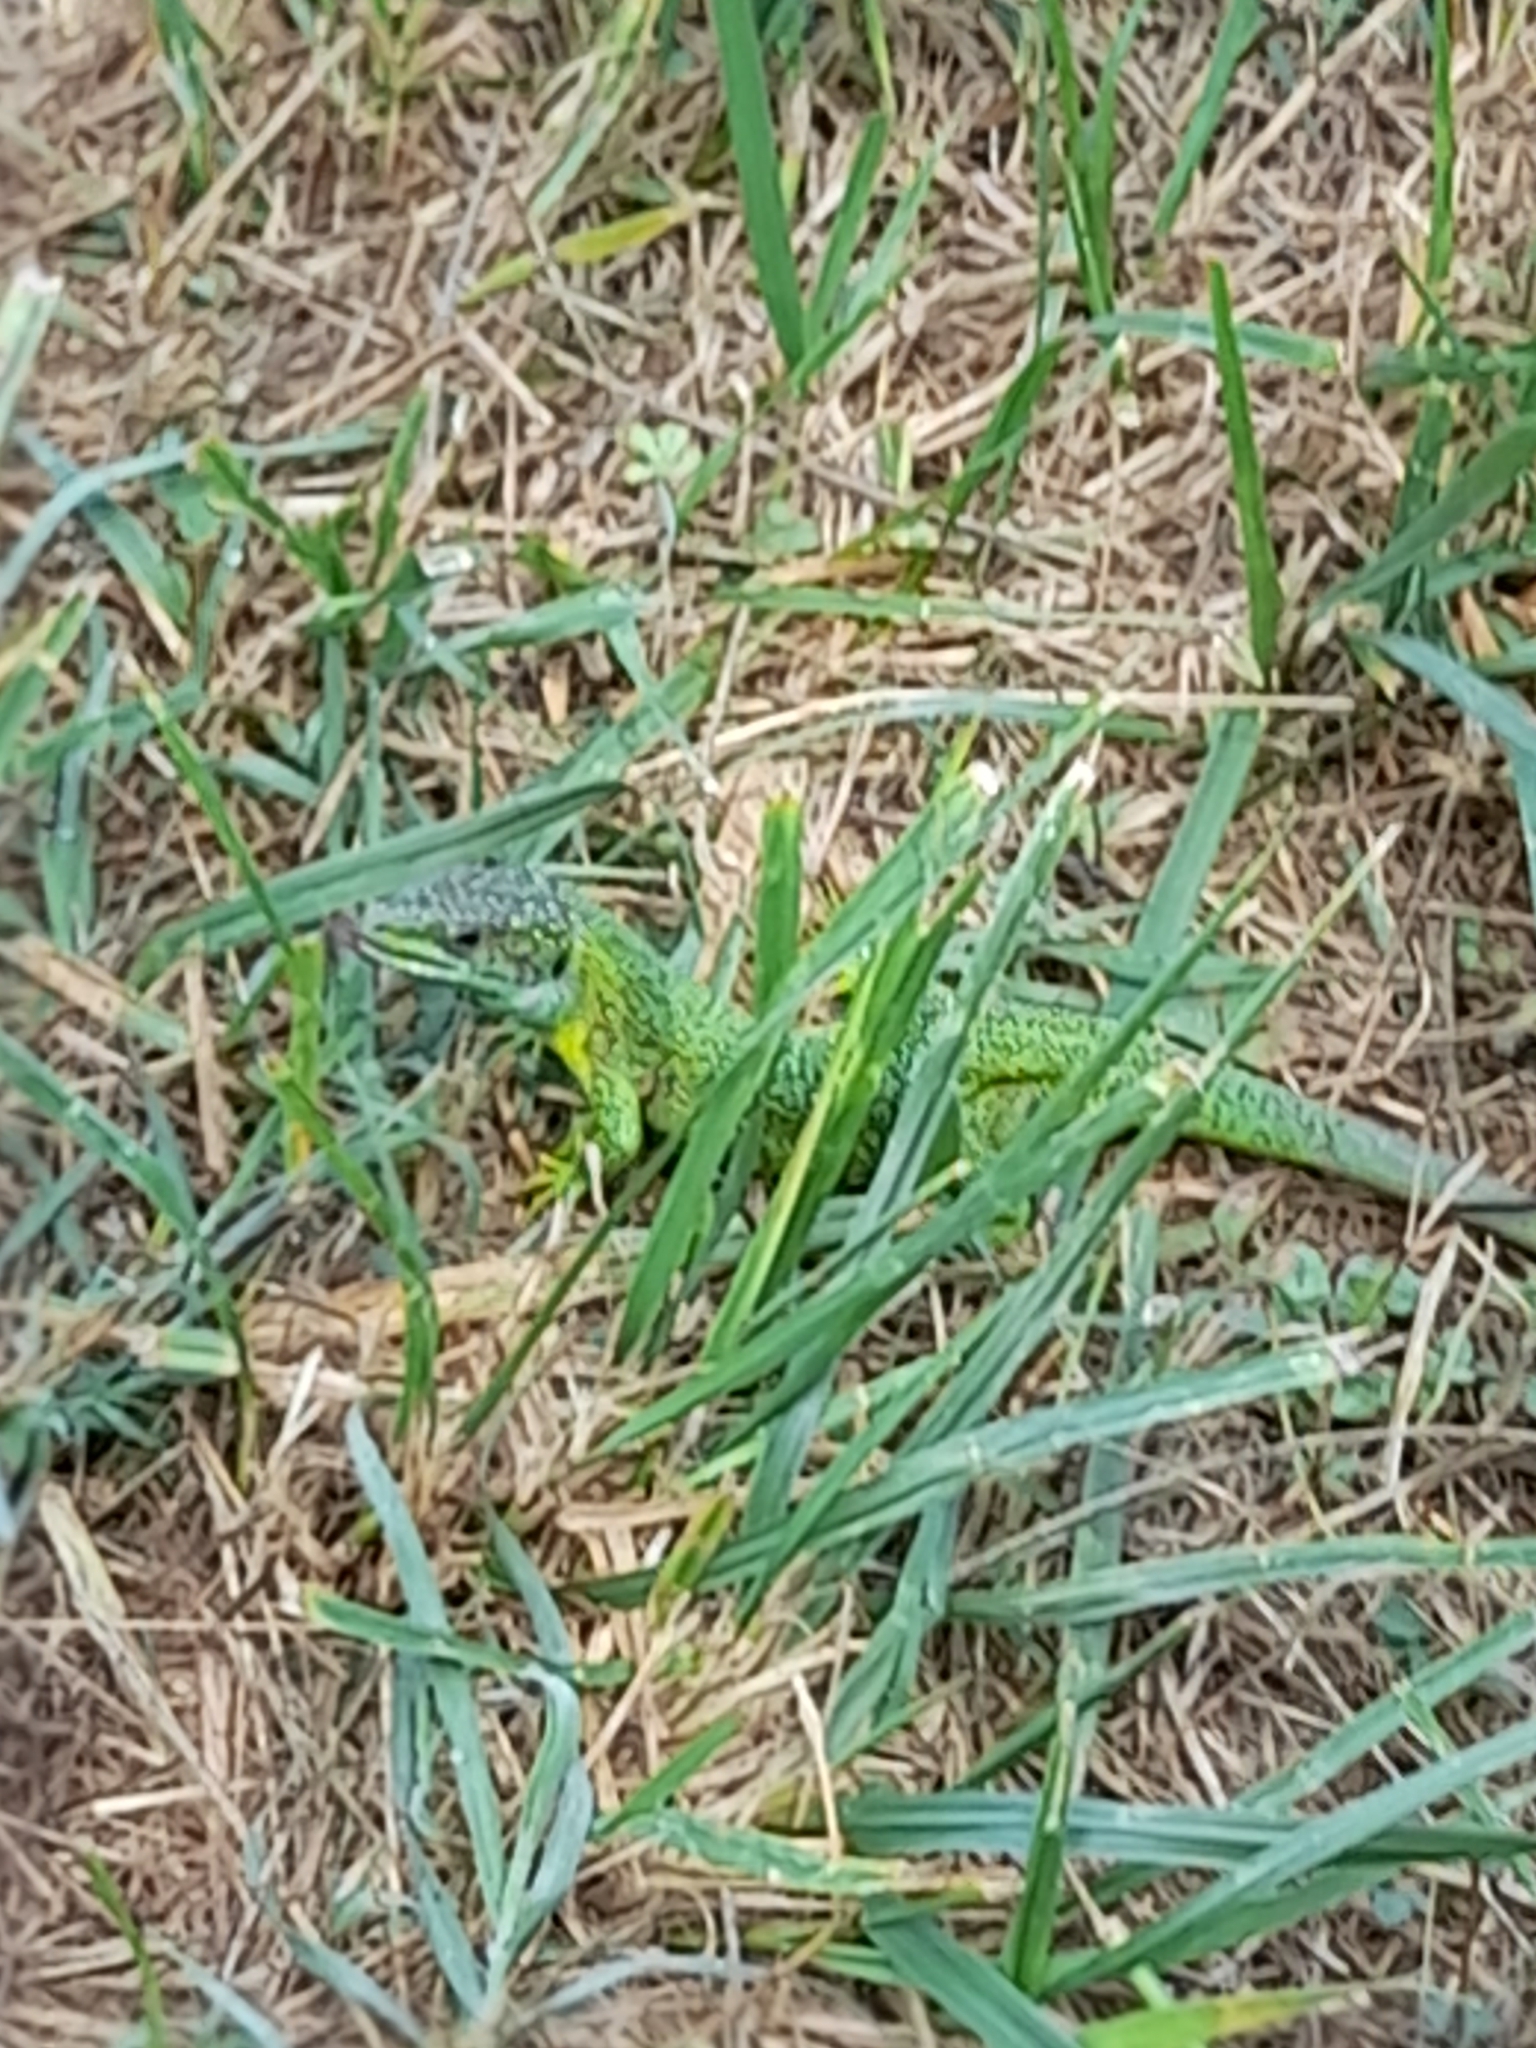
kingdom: Animalia
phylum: Chordata
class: Squamata
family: Lacertidae
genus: Lacerta
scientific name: Lacerta bilineata
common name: Western green lizard
